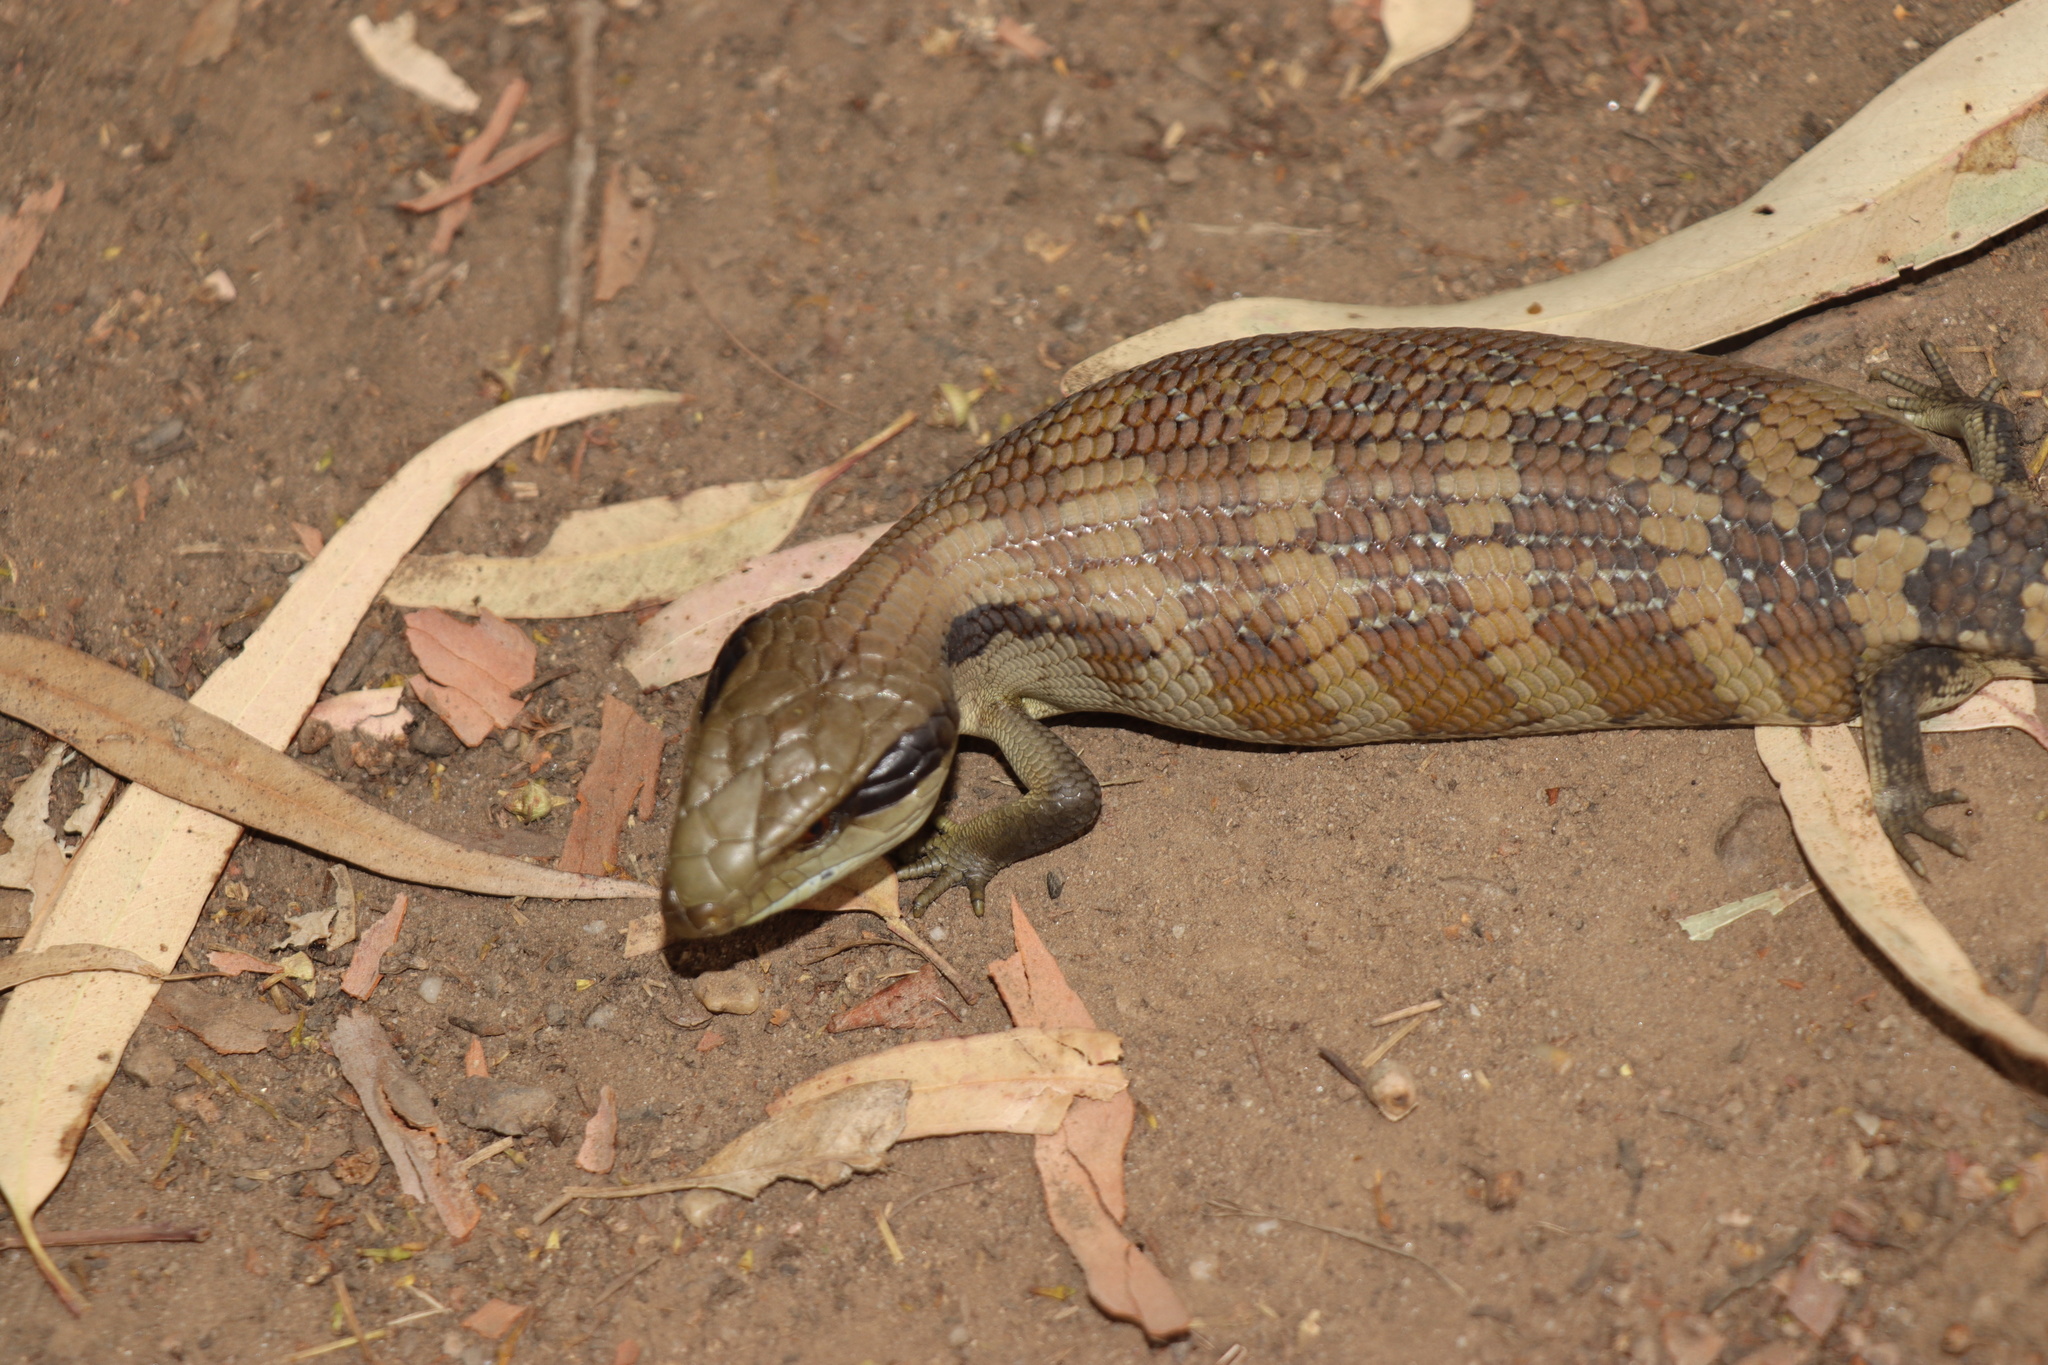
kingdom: Animalia
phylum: Chordata
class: Squamata
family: Scincidae
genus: Tiliqua
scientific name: Tiliqua scincoides
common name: Common bluetongue
